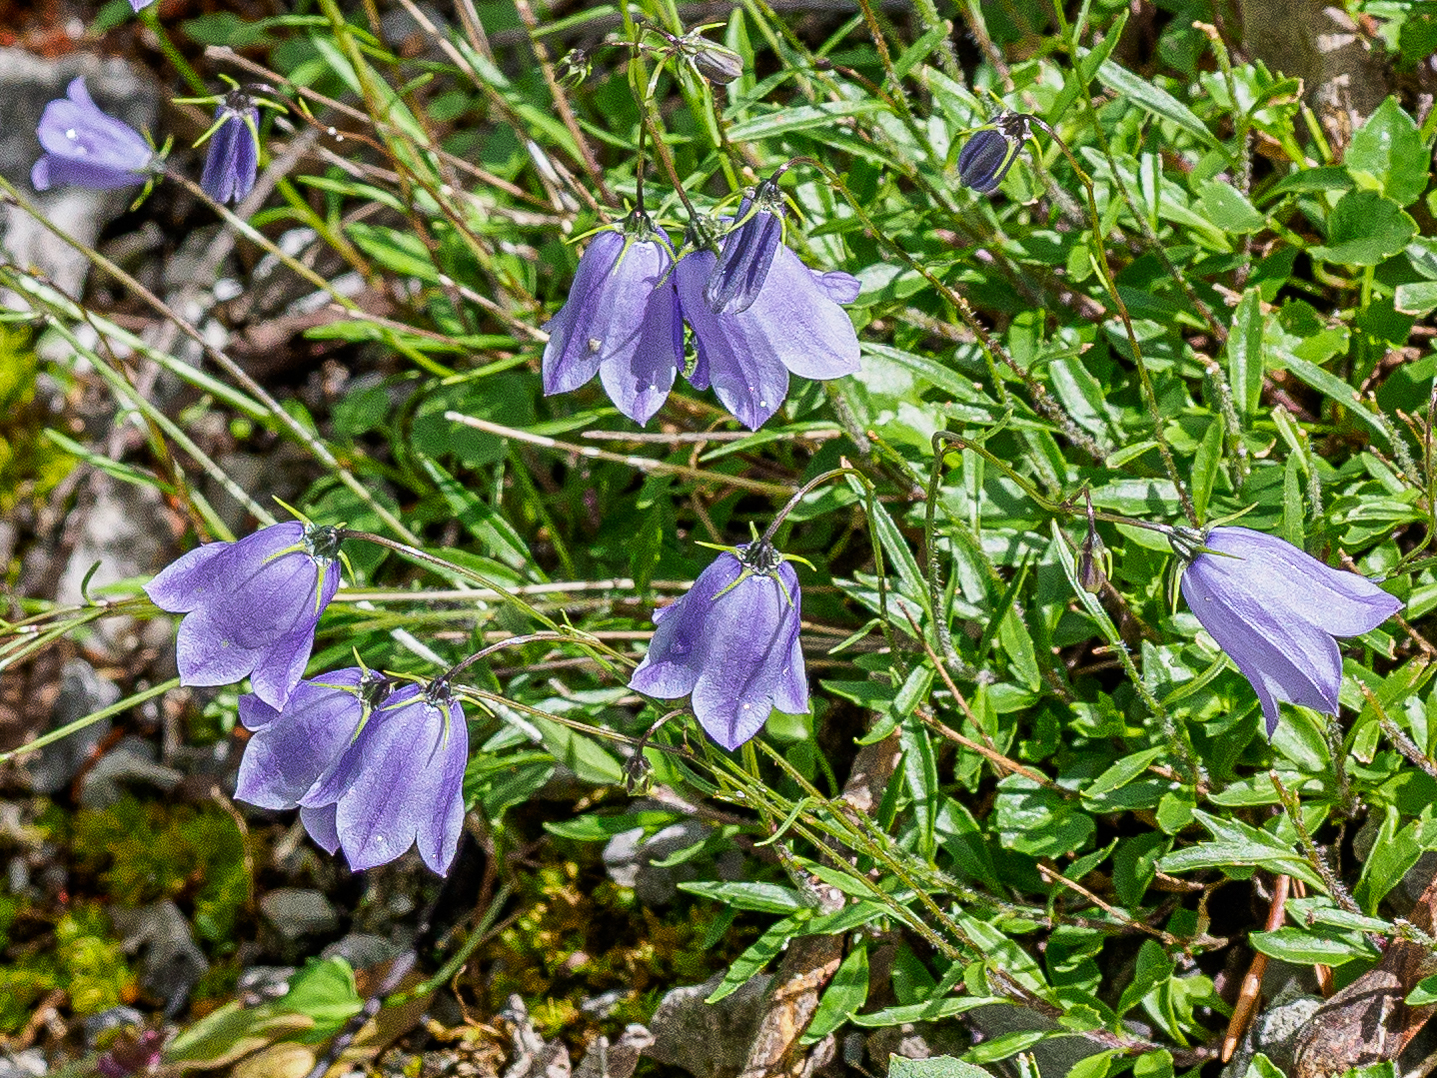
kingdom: Plantae
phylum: Tracheophyta
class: Magnoliopsida
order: Asterales
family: Campanulaceae
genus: Campanula
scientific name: Campanula cochleariifolia
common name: Fairies'-thimbles
